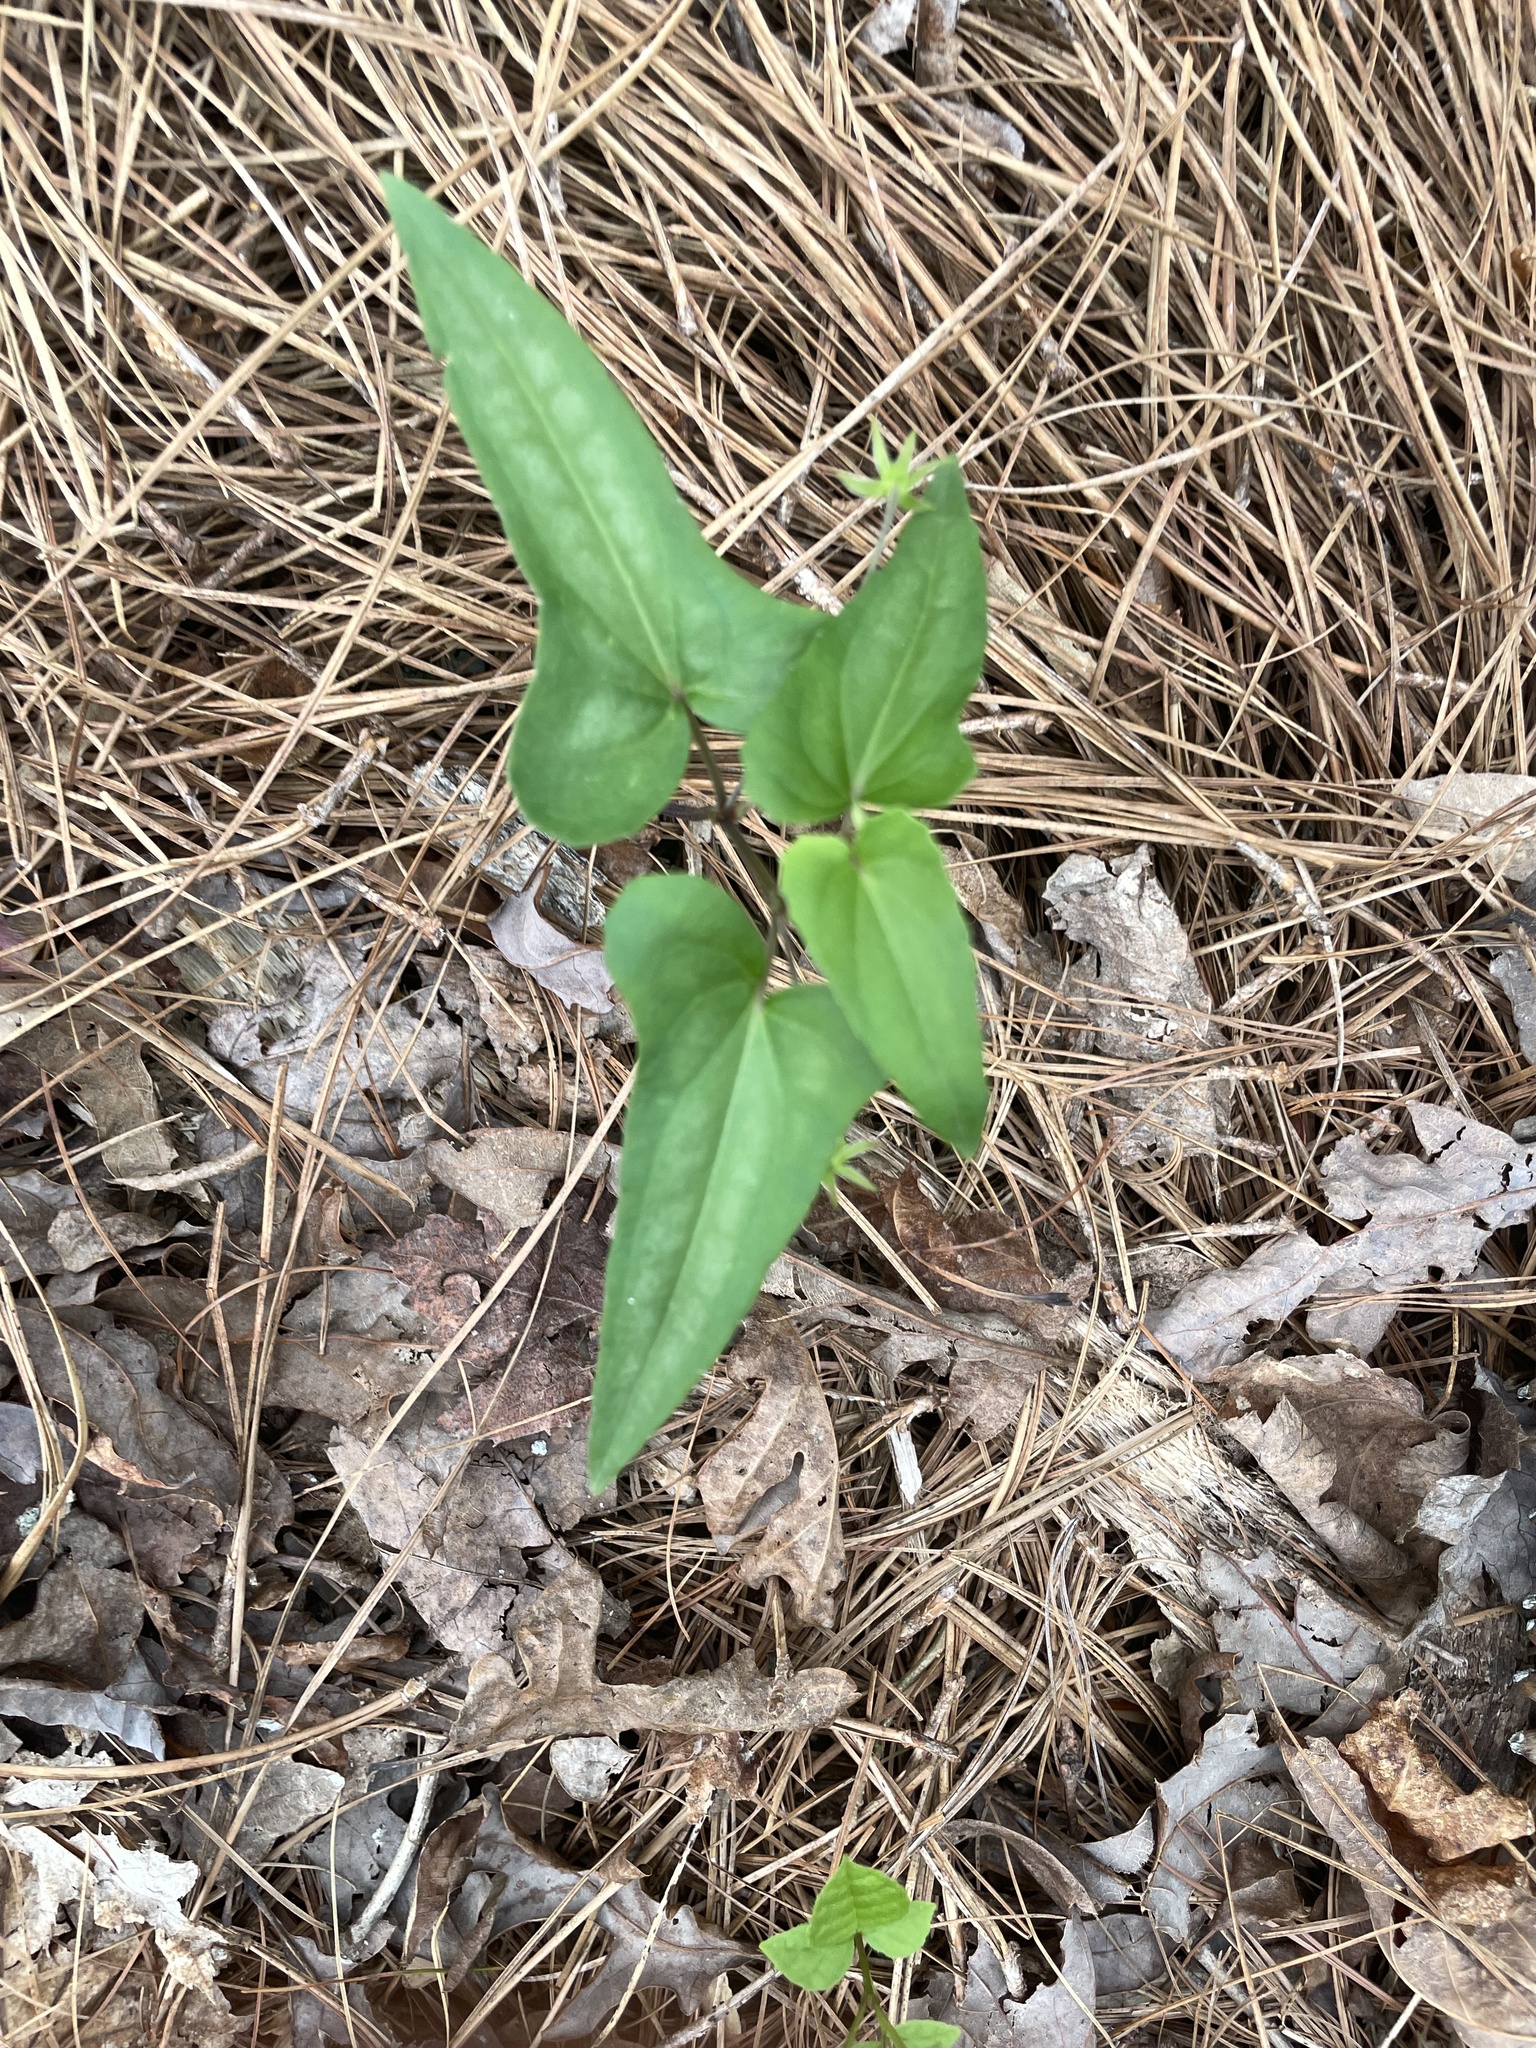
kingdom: Plantae
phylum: Tracheophyta
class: Magnoliopsida
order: Malpighiales
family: Violaceae
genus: Viola
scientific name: Viola hastata
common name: Spear-leaf violet
